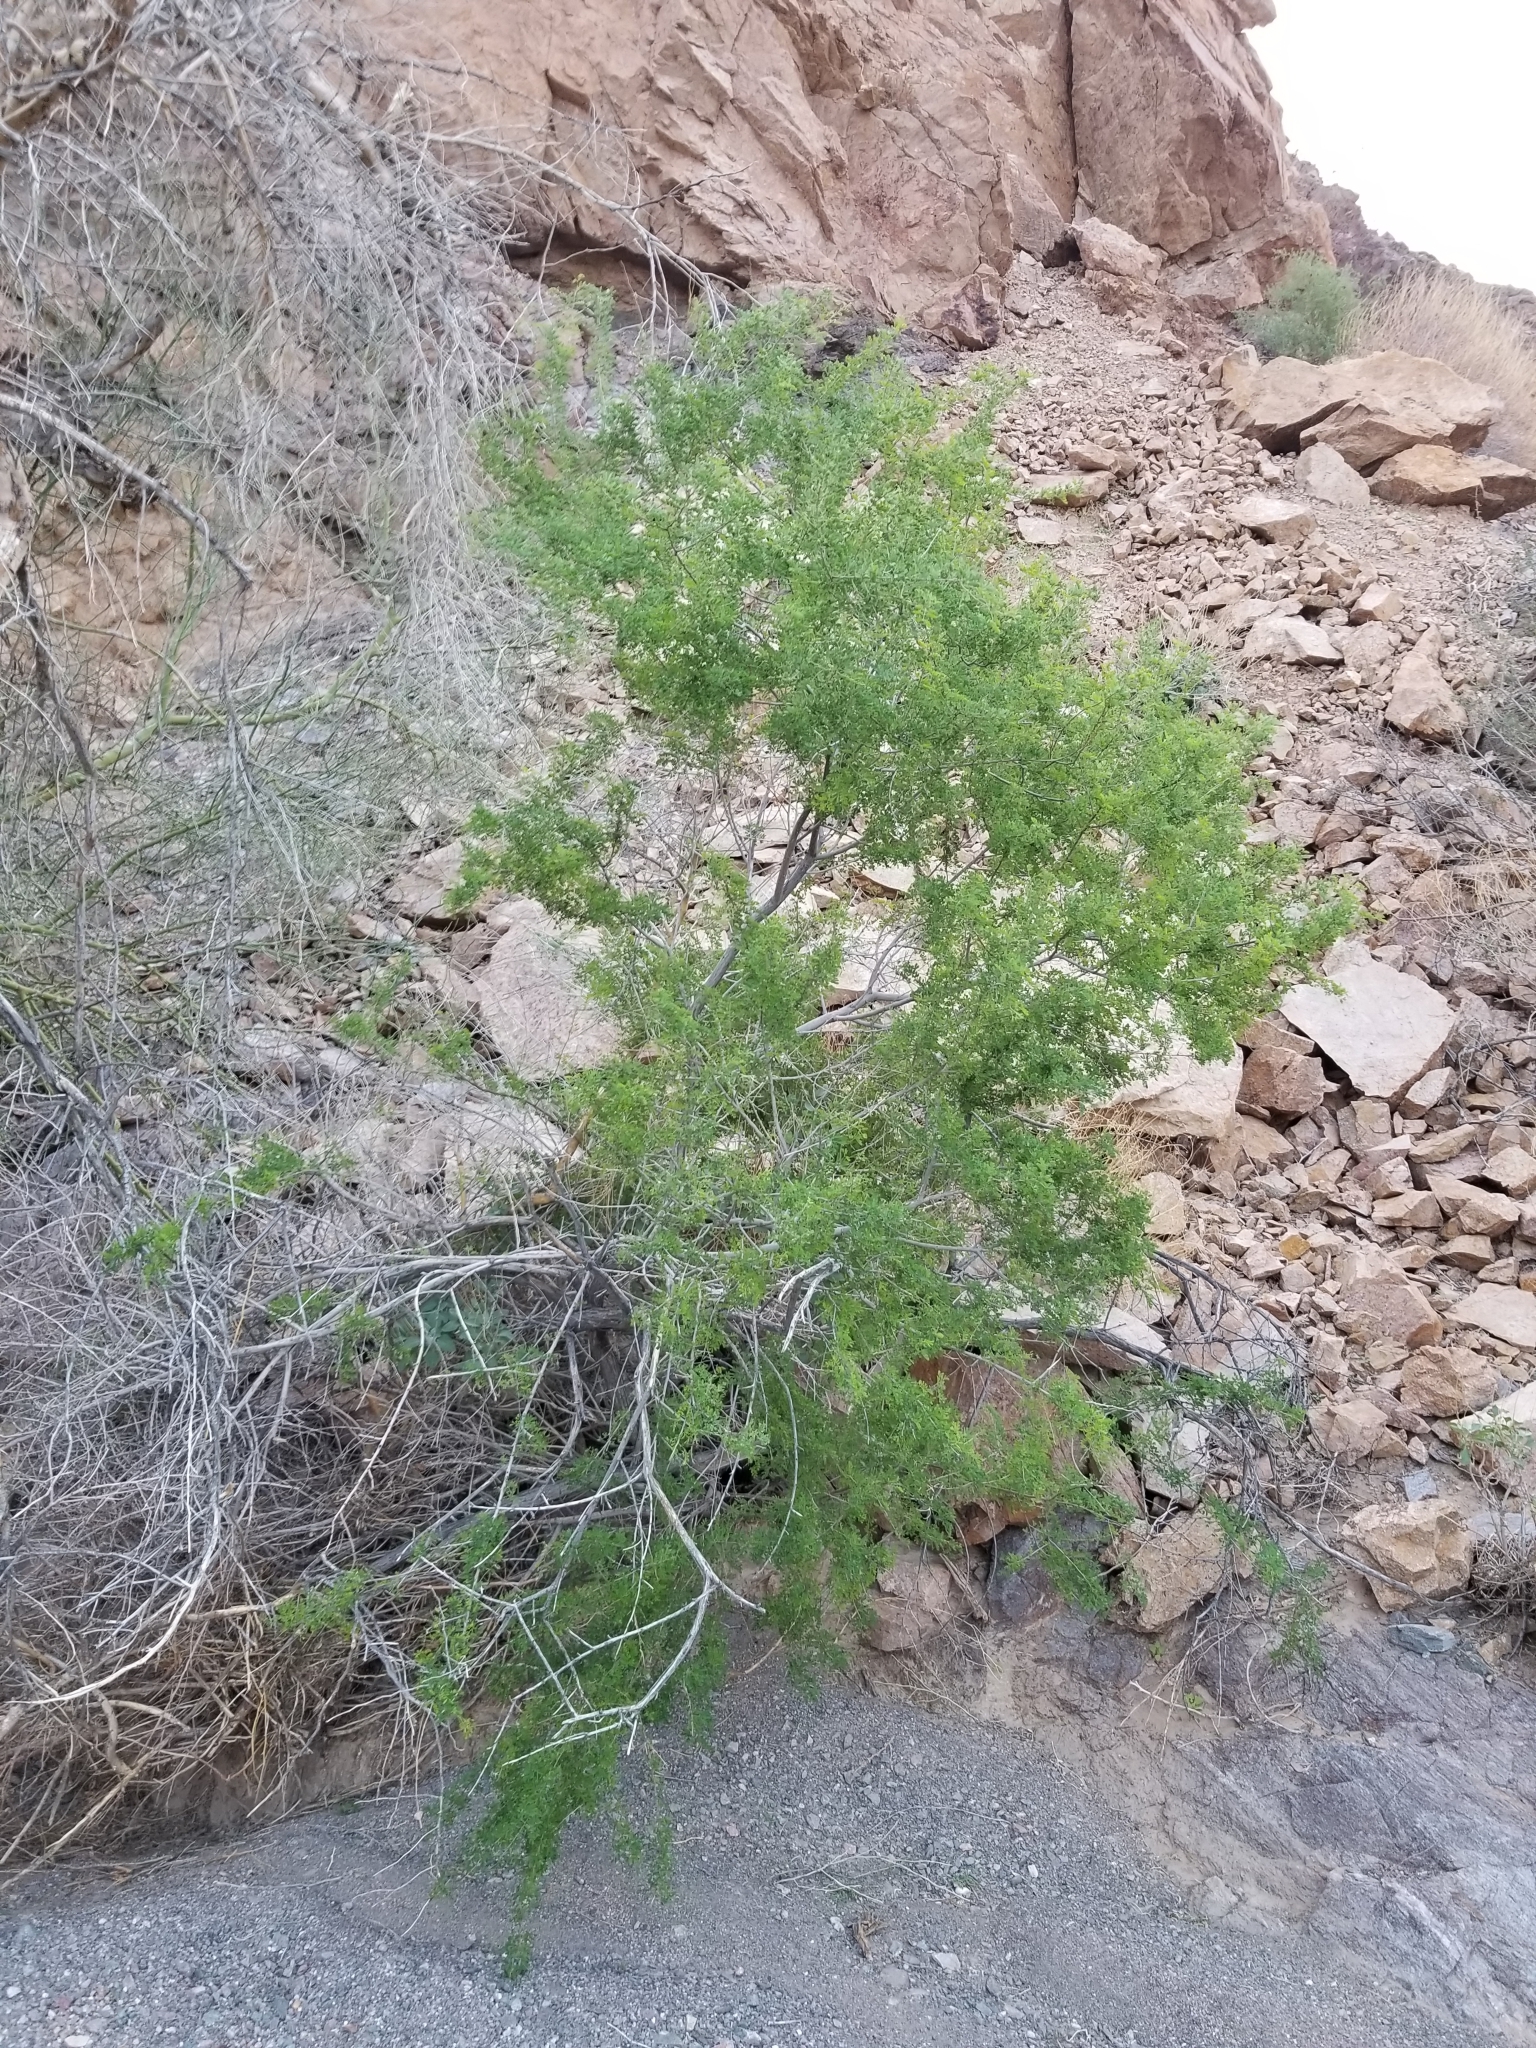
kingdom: Plantae
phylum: Tracheophyta
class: Magnoliopsida
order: Fabales
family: Fabaceae
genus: Senegalia
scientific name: Senegalia greggii
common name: Texas-mimosa
